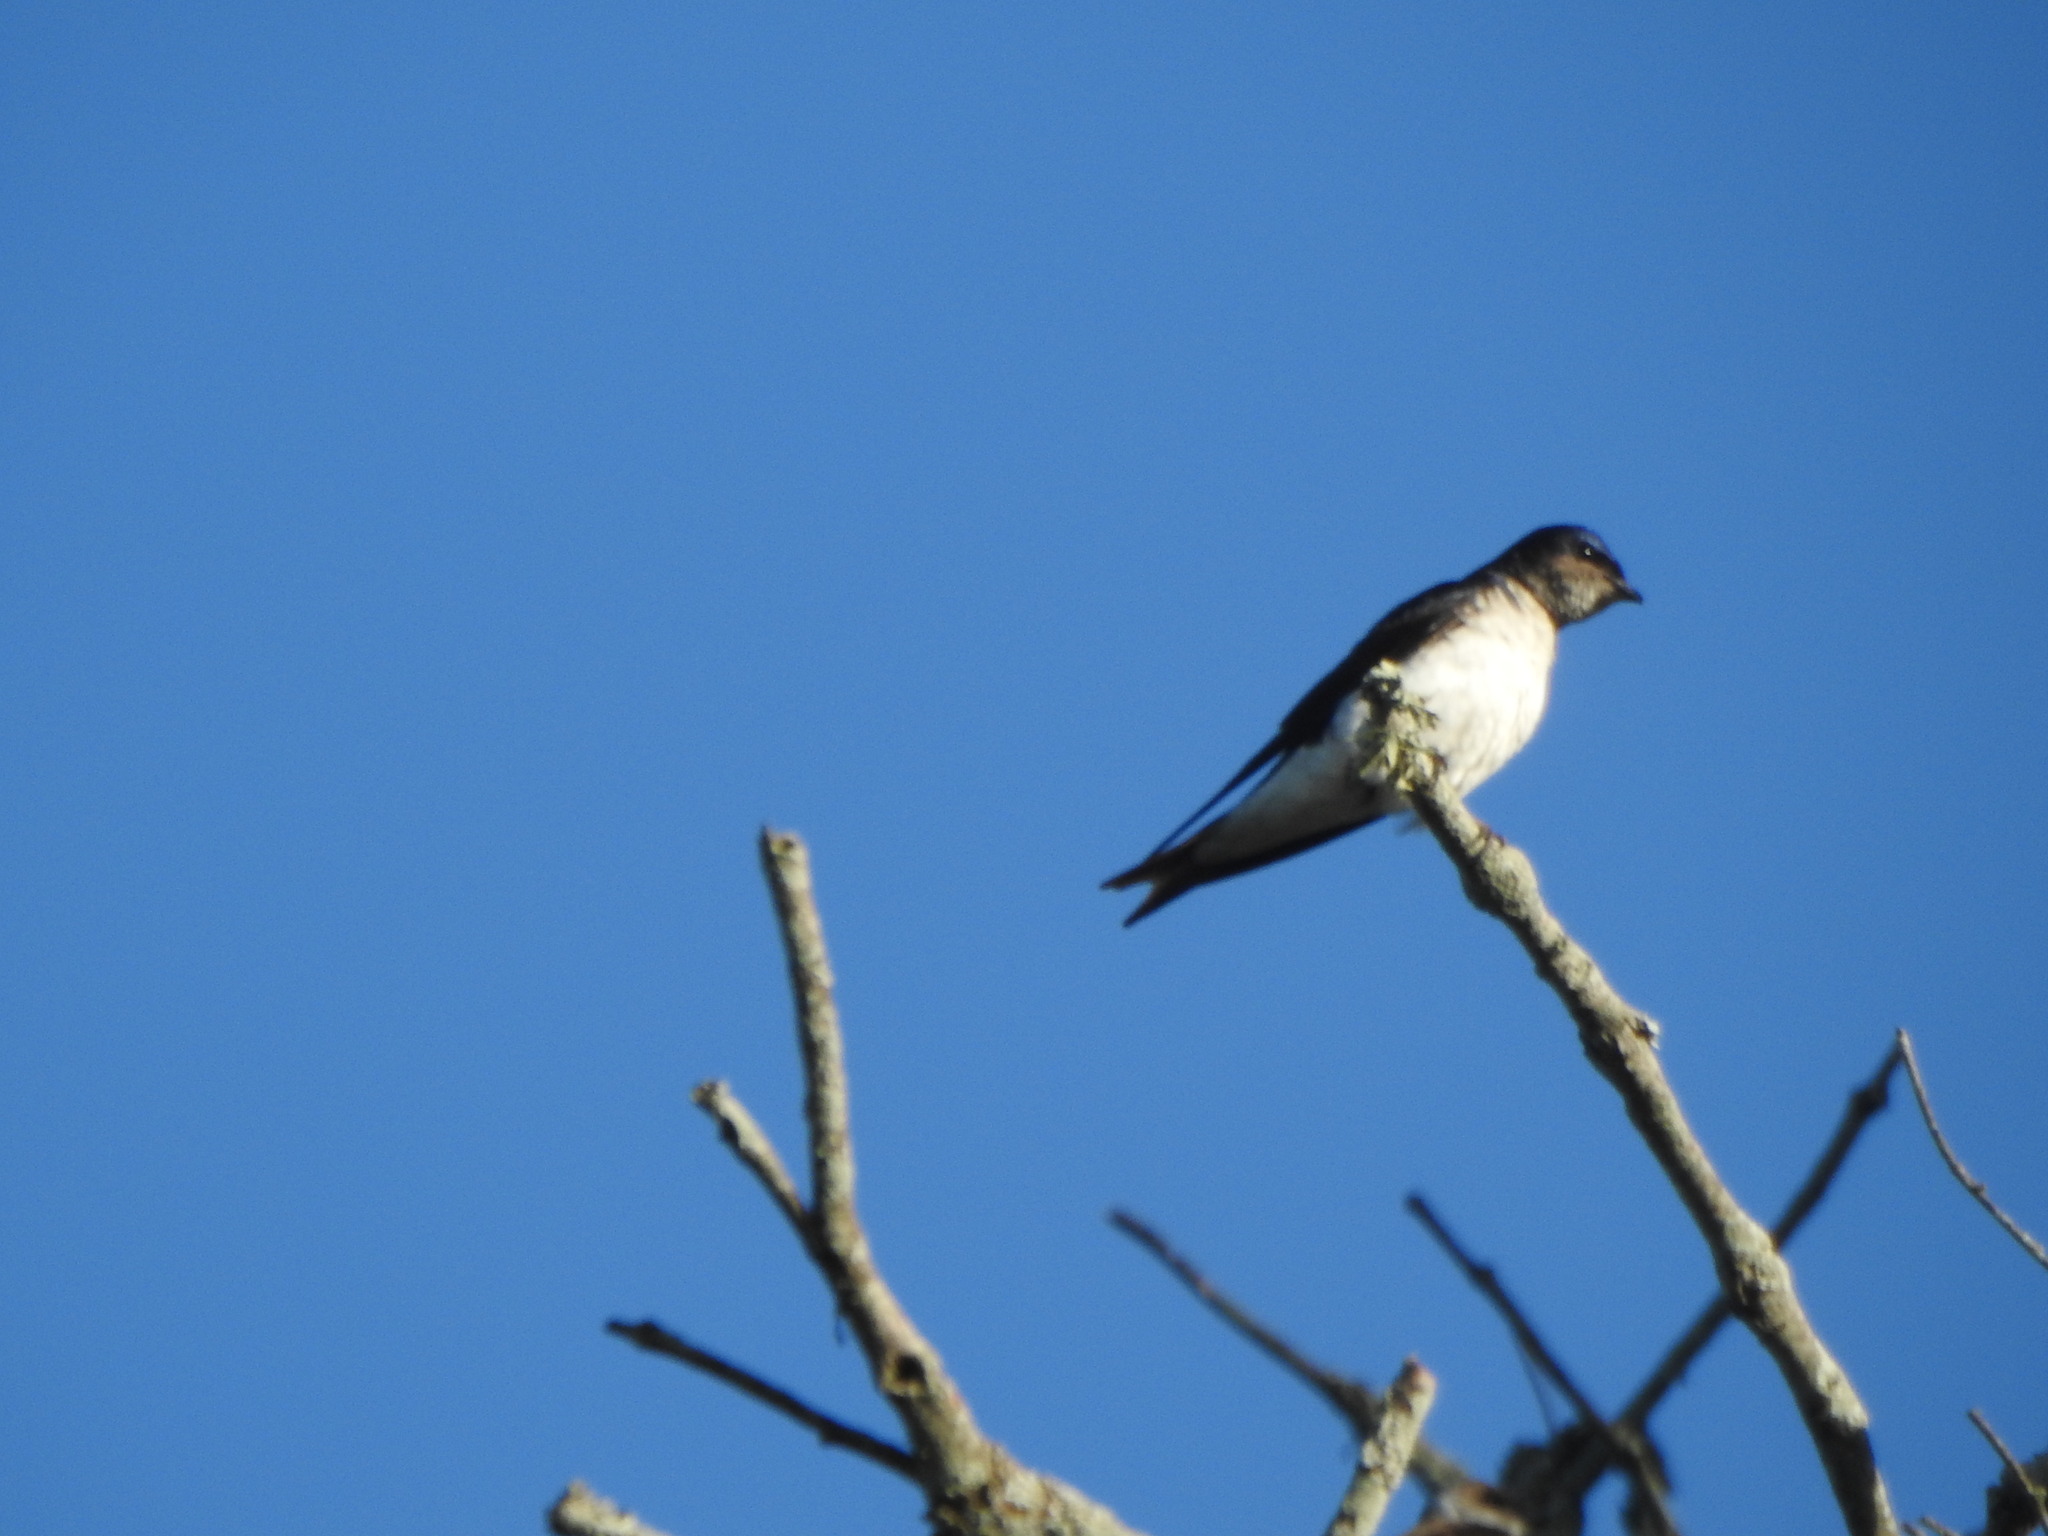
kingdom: Animalia
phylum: Chordata
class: Aves
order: Passeriformes
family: Hirundinidae
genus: Progne
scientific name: Progne chalybea
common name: Grey-breasted martin
